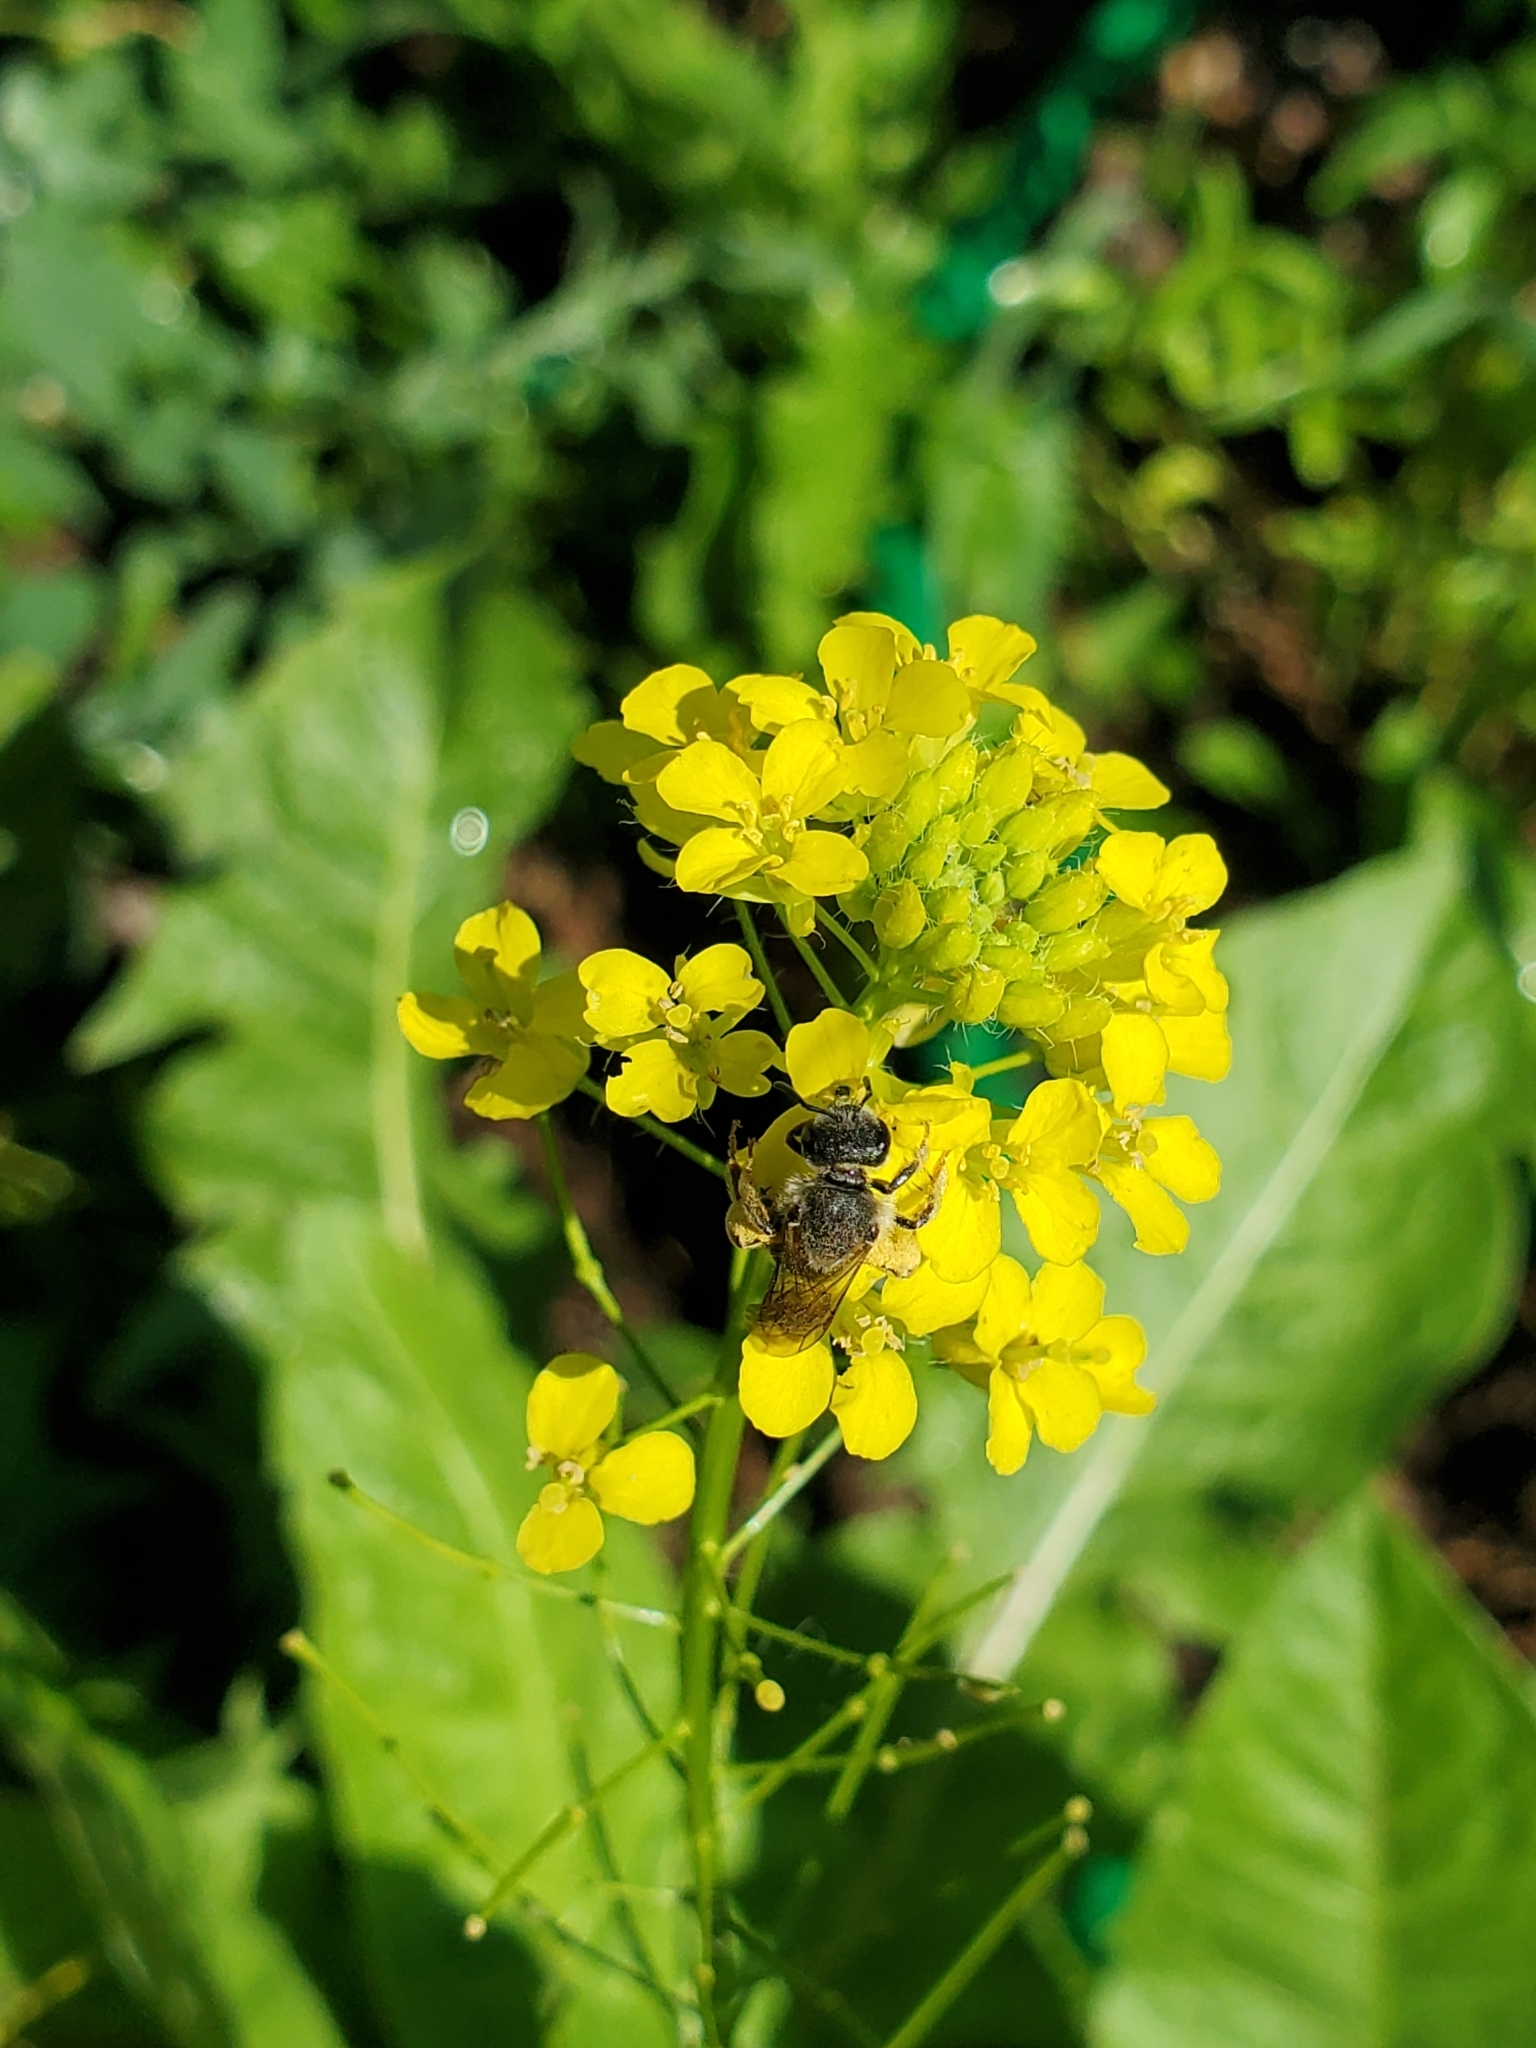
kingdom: Animalia
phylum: Arthropoda
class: Insecta
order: Hymenoptera
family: Halictidae
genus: Halictus
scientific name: Halictus rubicundus
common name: Orange-legged furrow bee
